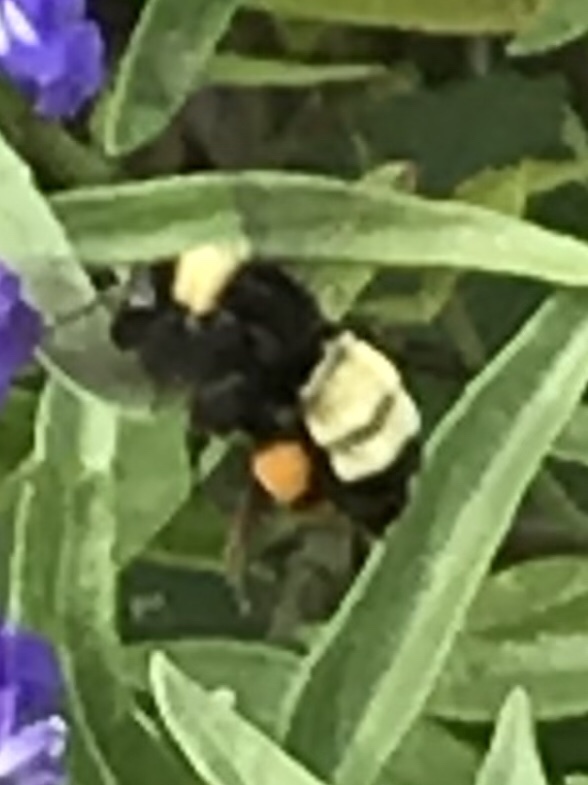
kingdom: Animalia
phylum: Arthropoda
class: Insecta
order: Hymenoptera
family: Apidae
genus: Bombus
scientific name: Bombus pensylvanicus
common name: Bumble bee
